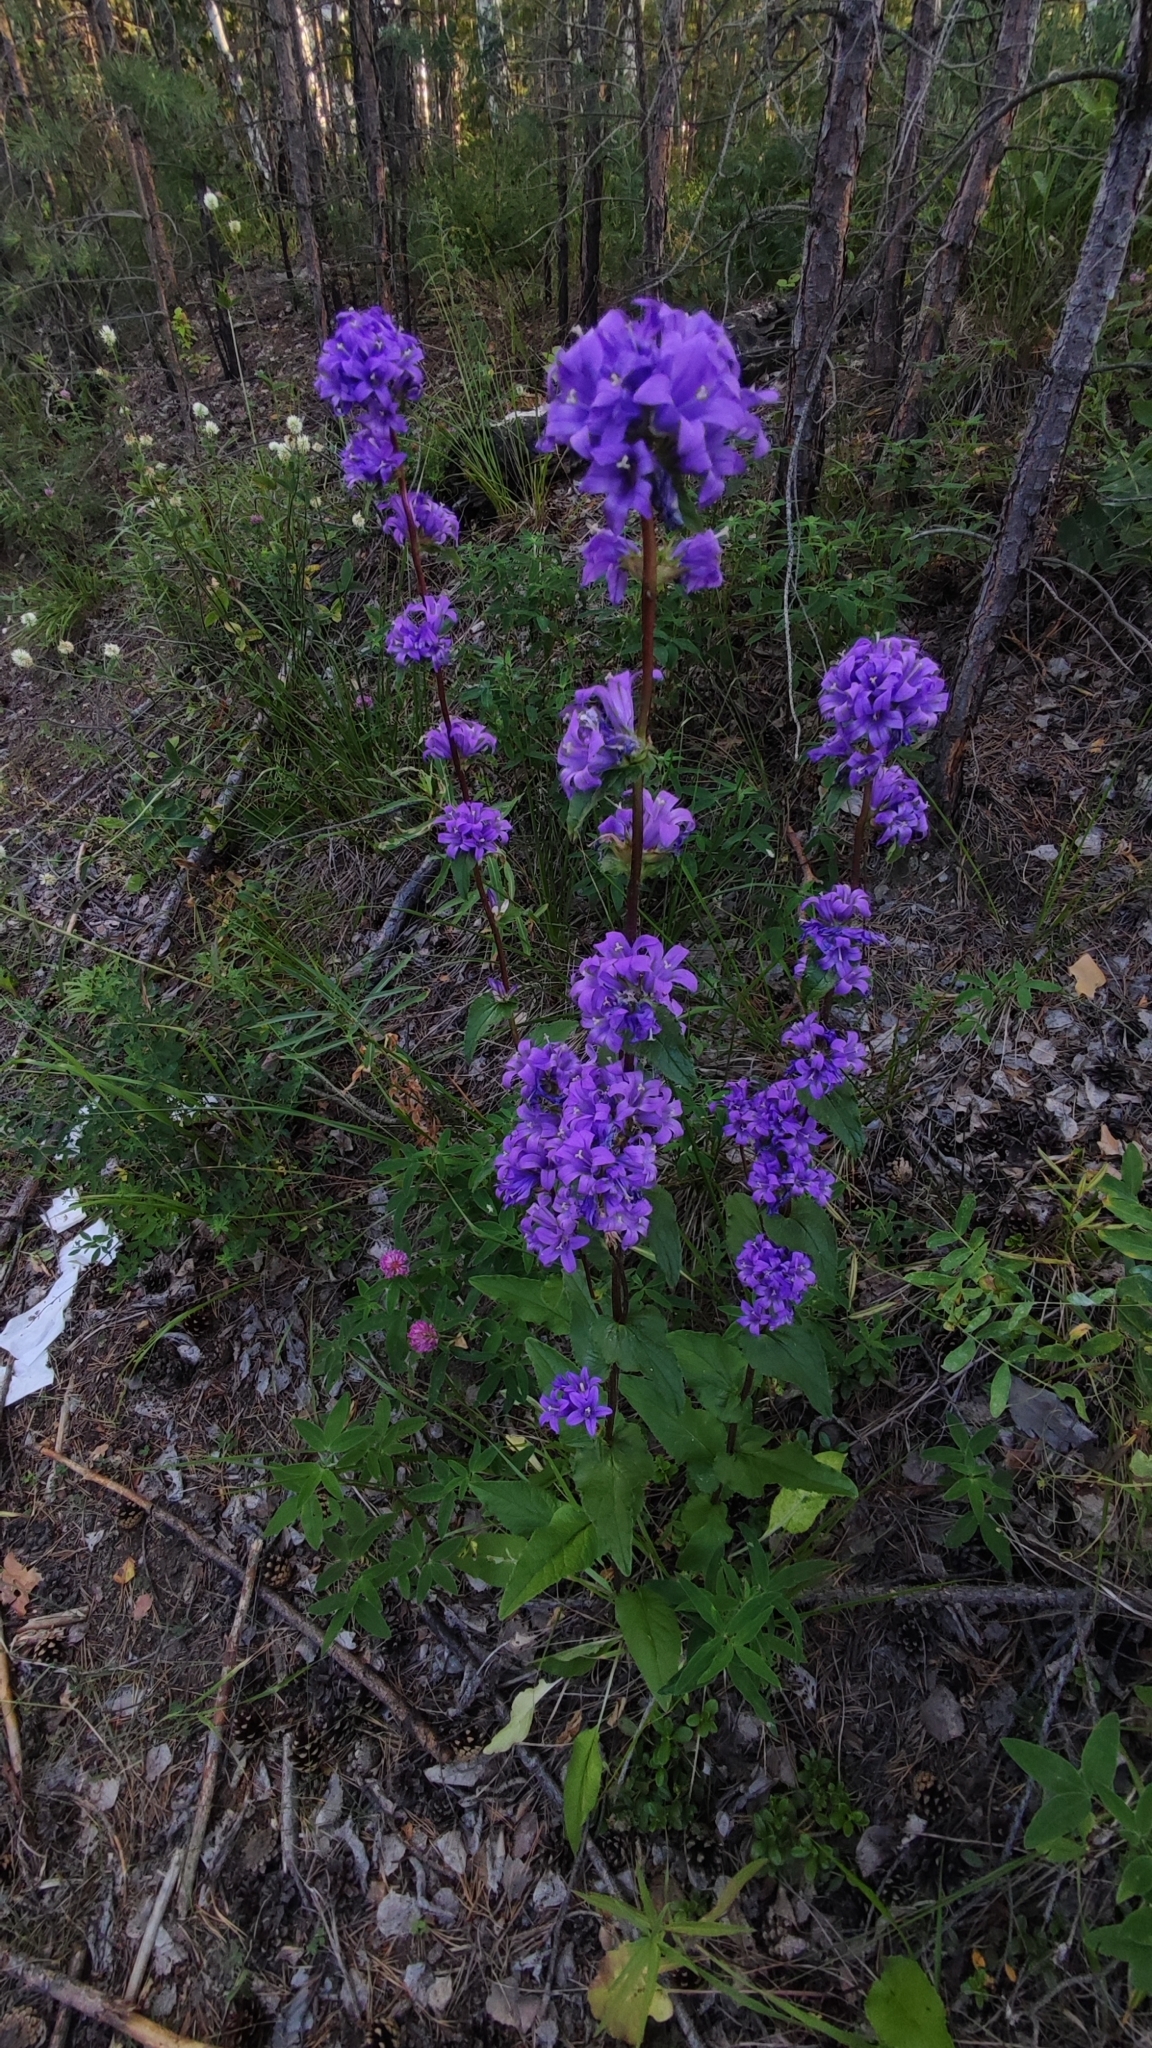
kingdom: Plantae
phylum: Tracheophyta
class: Magnoliopsida
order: Asterales
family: Campanulaceae
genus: Campanula
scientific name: Campanula glomerata
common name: Clustered bellflower
